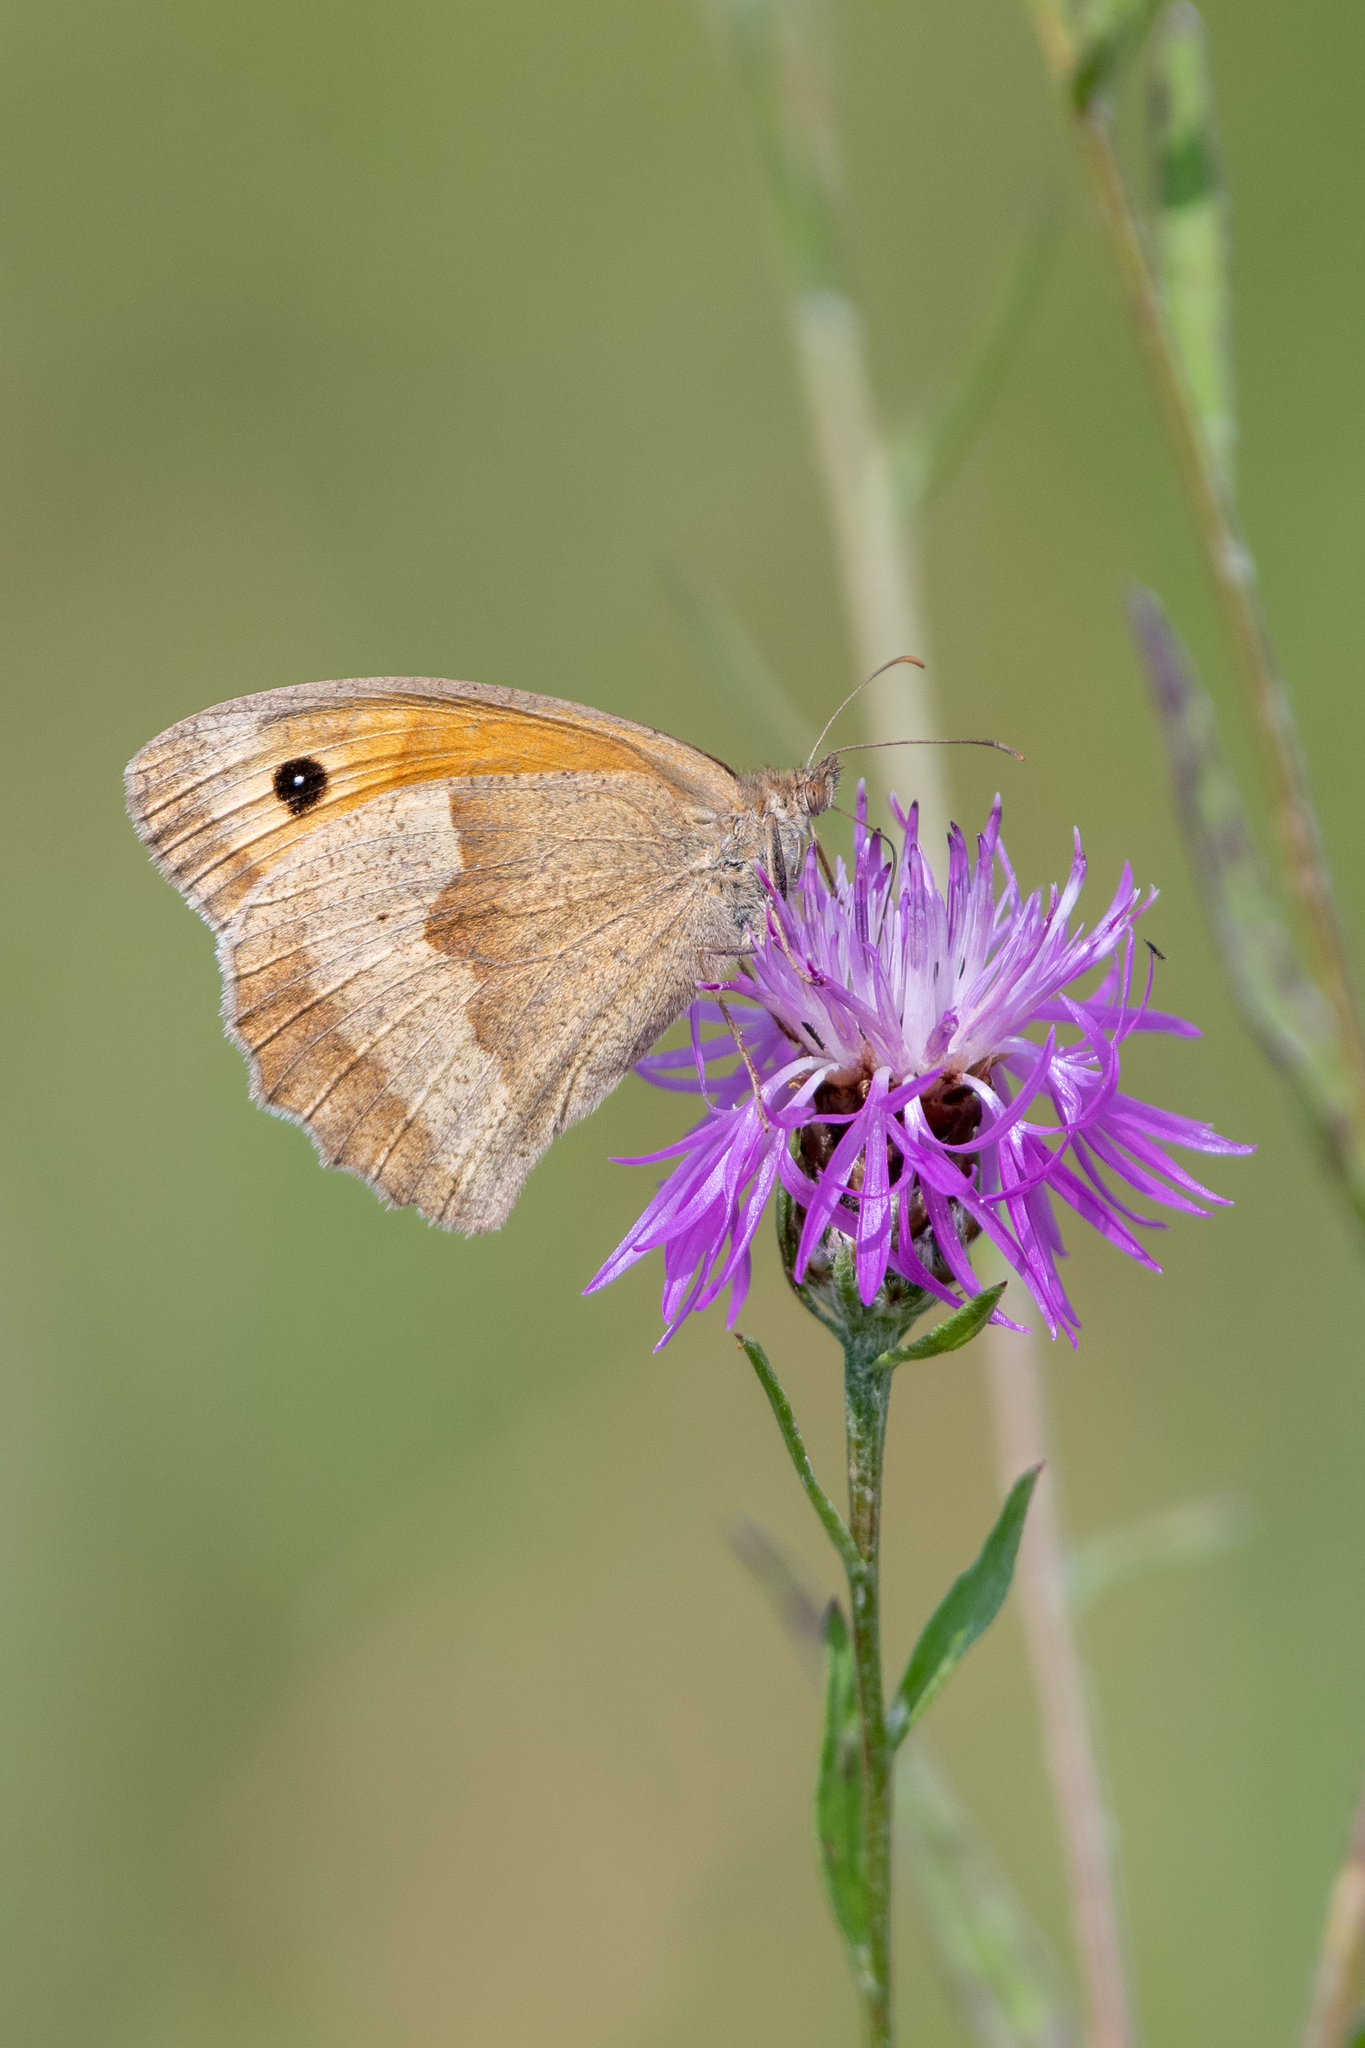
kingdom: Animalia
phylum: Arthropoda
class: Insecta
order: Lepidoptera
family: Nymphalidae
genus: Maniola
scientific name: Maniola jurtina
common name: Meadow brown
